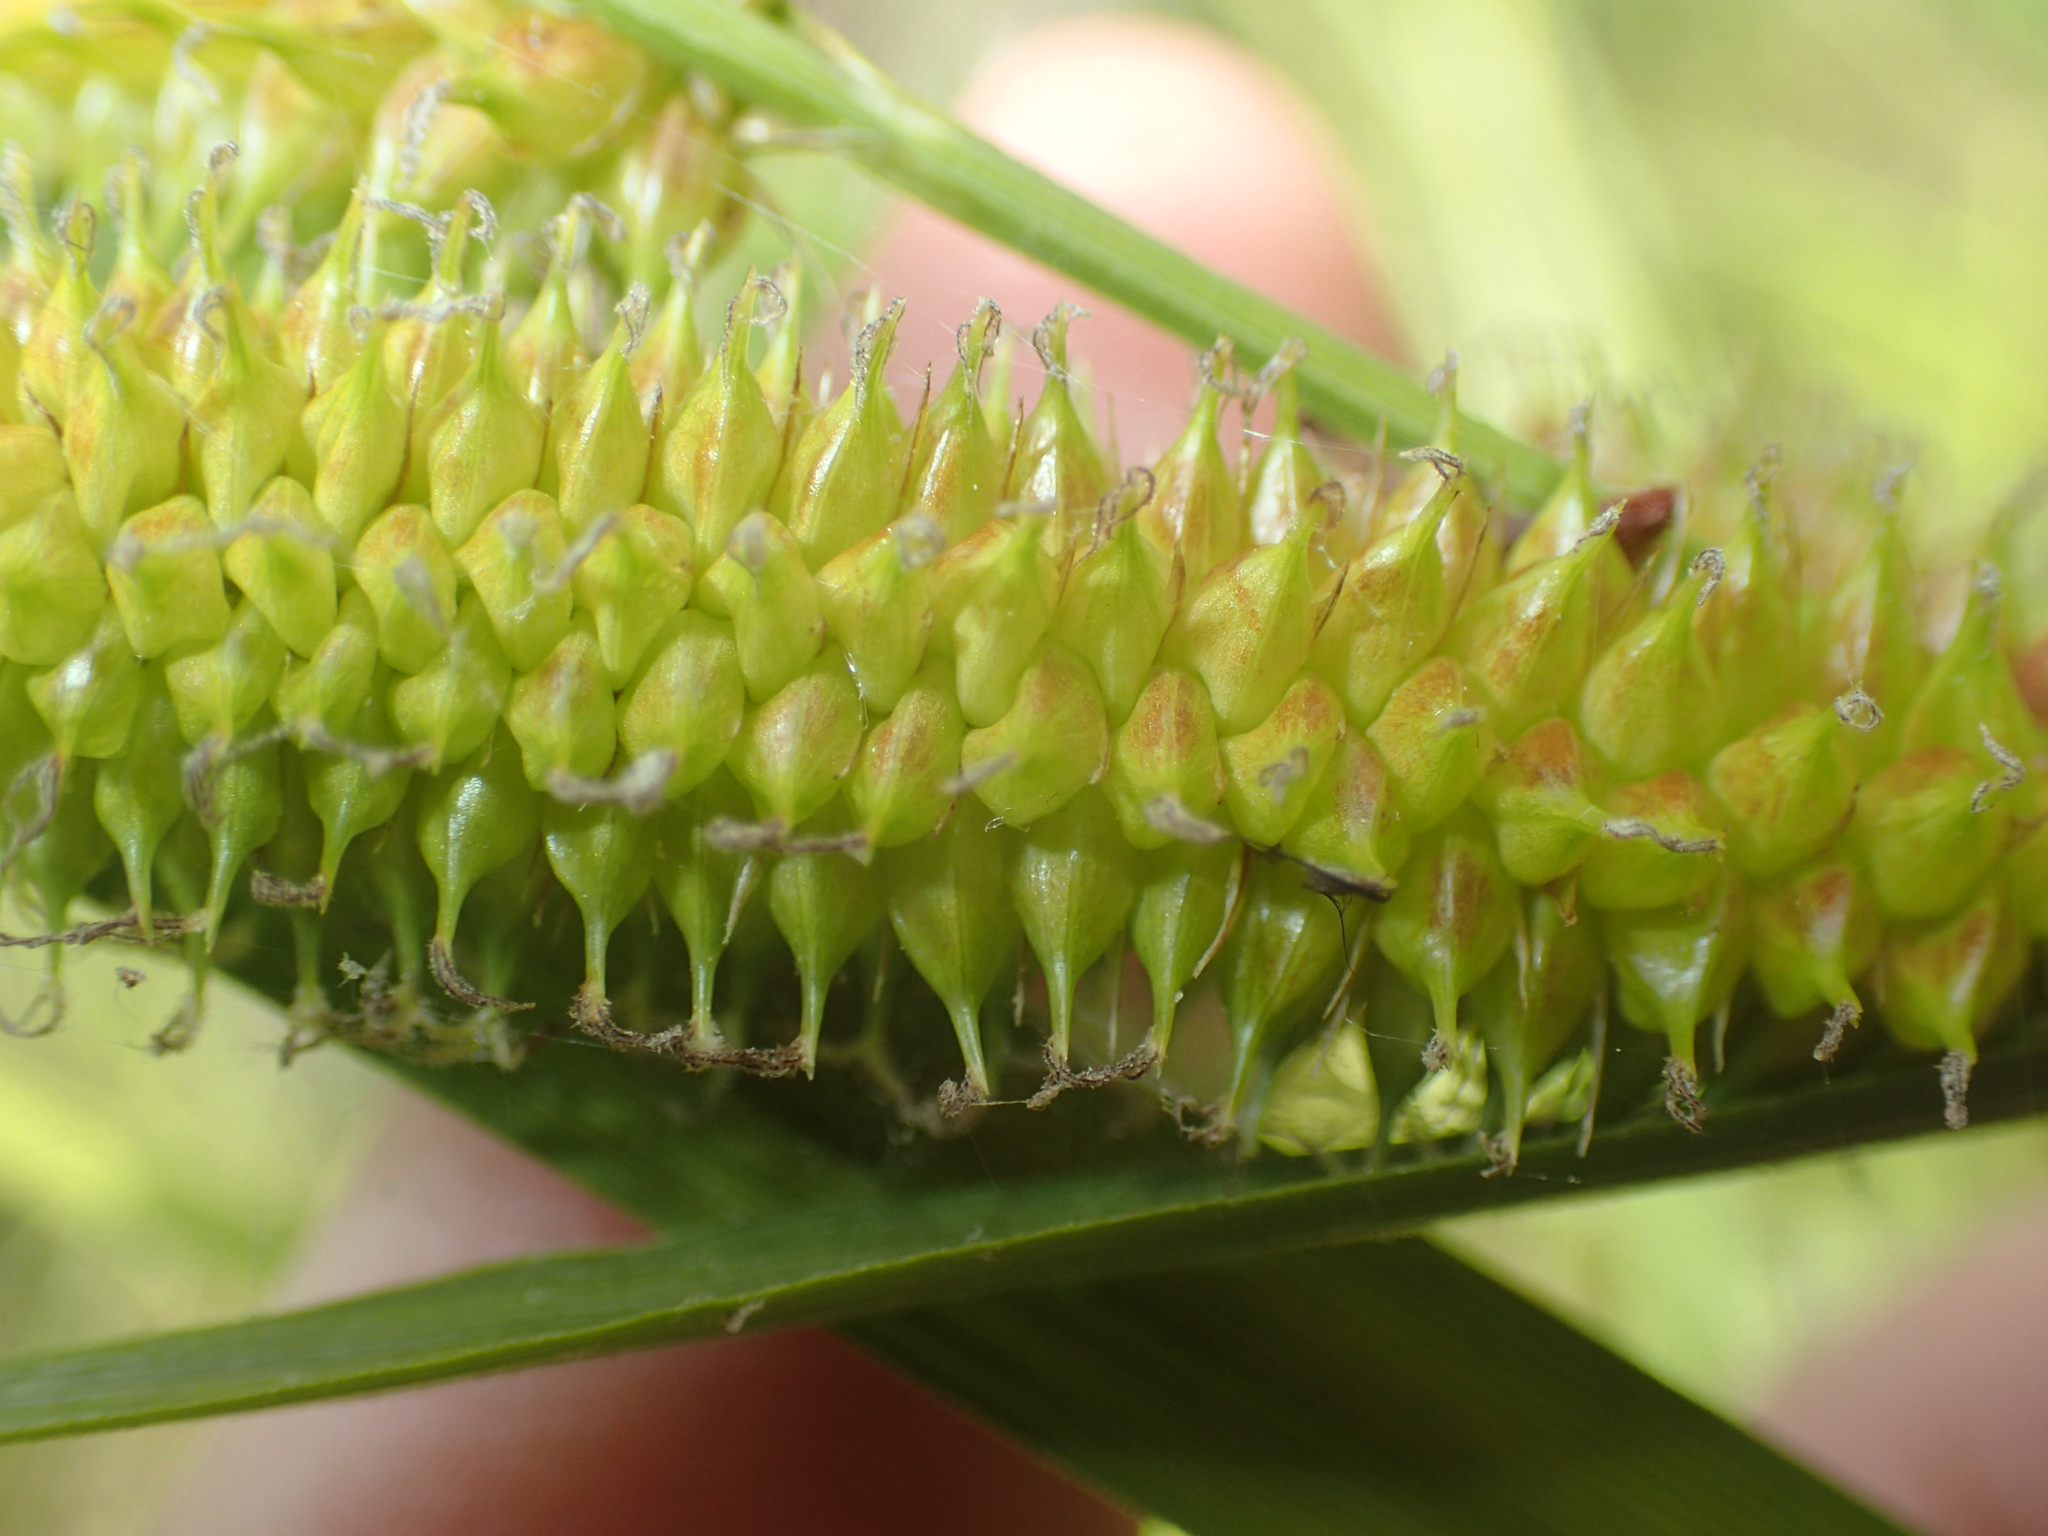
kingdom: Plantae
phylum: Tracheophyta
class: Liliopsida
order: Poales
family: Cyperaceae
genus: Carex
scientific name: Carex utriculata
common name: Beaked sedge
